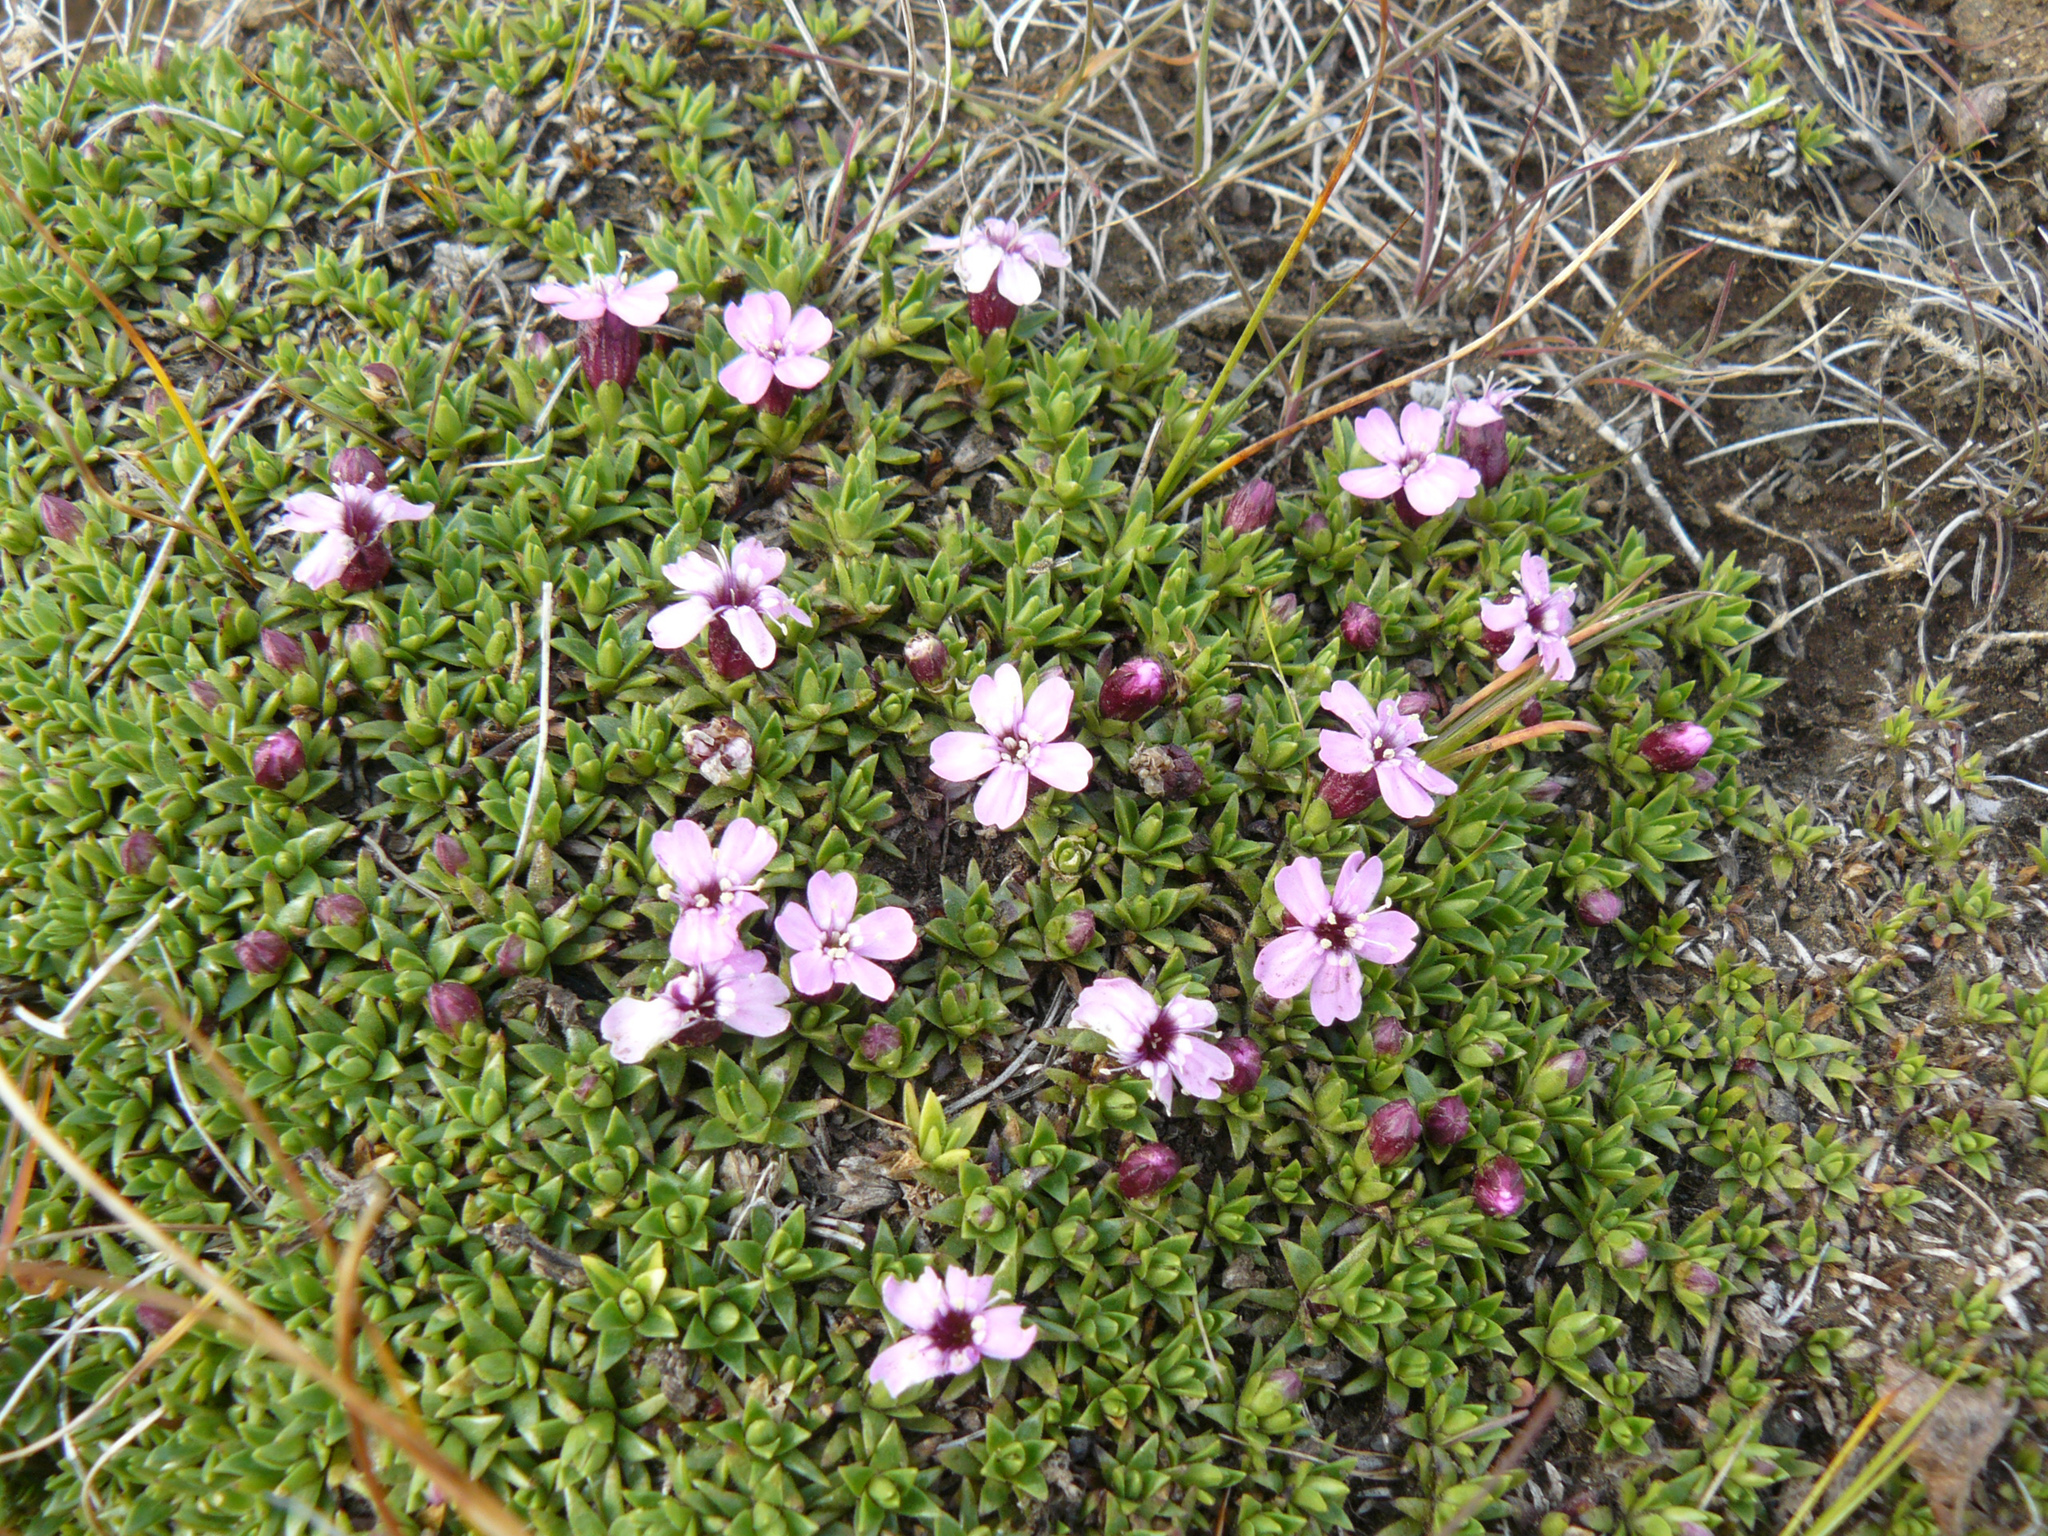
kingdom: Plantae
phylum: Tracheophyta
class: Magnoliopsida
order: Caryophyllales
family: Caryophyllaceae
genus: Silene
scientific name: Silene acaulis
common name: Moss campion
